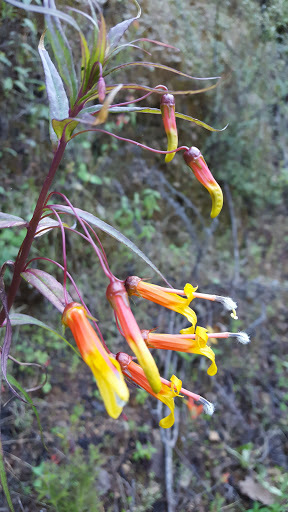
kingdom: Plantae
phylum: Tracheophyta
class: Magnoliopsida
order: Asterales
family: Campanulaceae
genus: Lobelia
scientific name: Lobelia laxiflora
